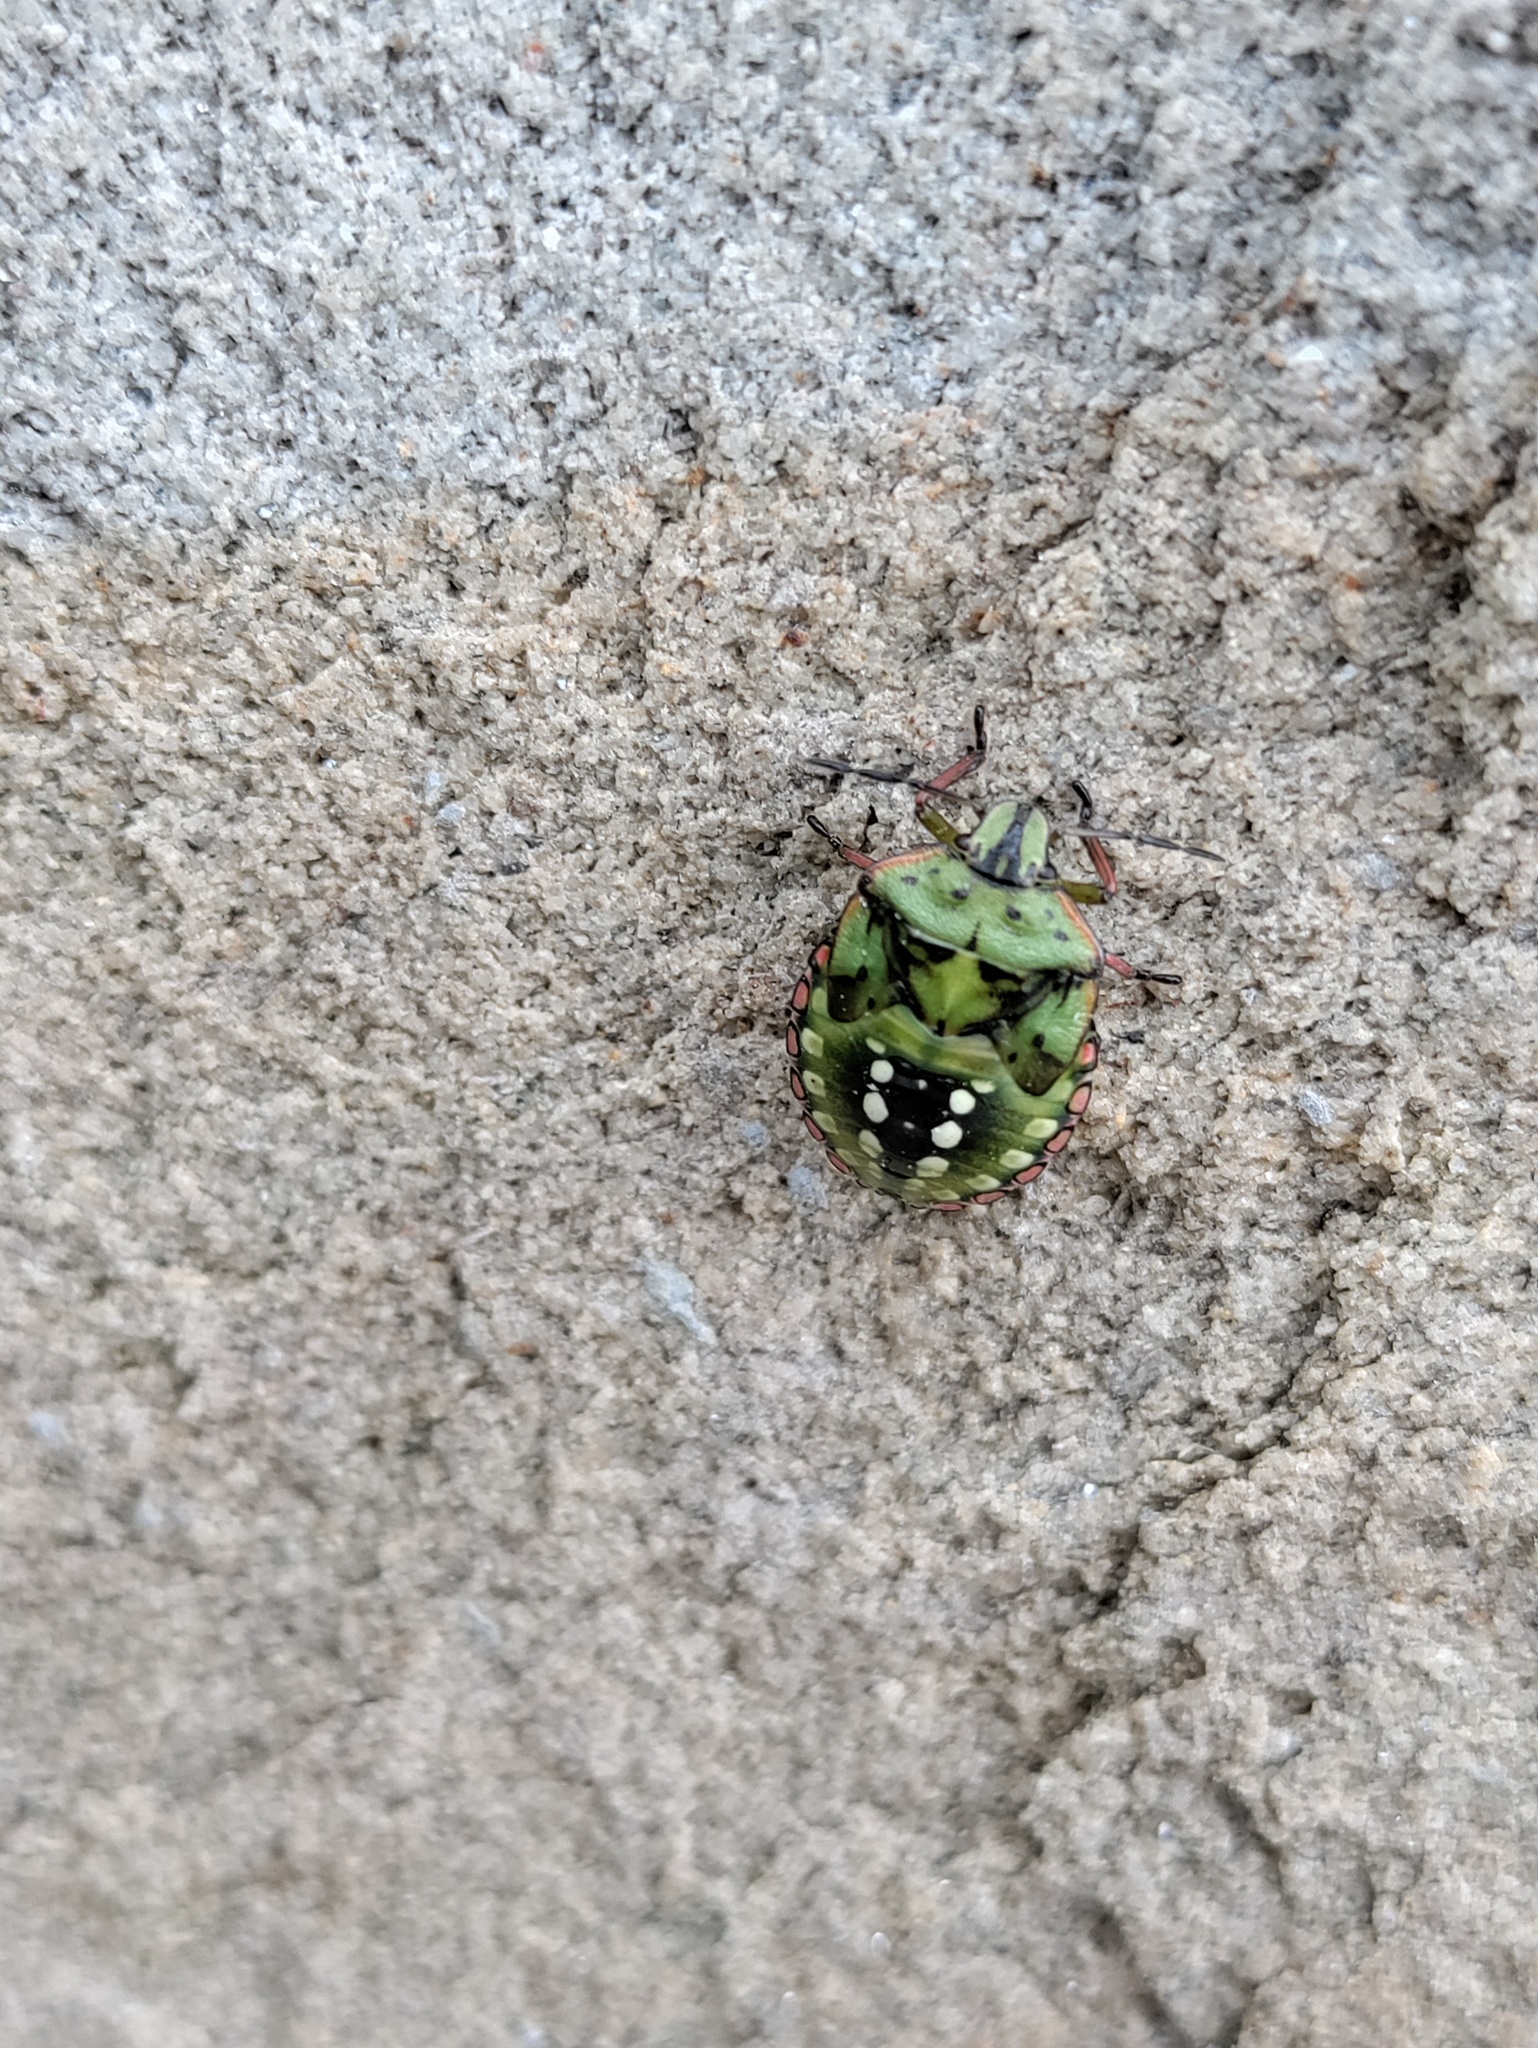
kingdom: Animalia
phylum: Arthropoda
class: Insecta
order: Hemiptera
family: Pentatomidae
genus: Nezara
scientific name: Nezara viridula
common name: Southern green stink bug
